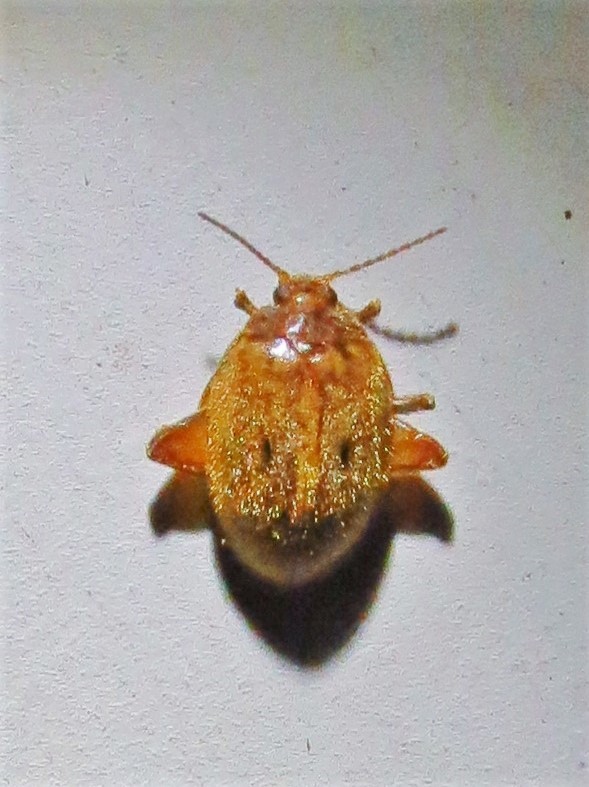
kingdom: Animalia
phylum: Arthropoda
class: Insecta
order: Coleoptera
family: Scirtidae
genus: Ora
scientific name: Ora texana
